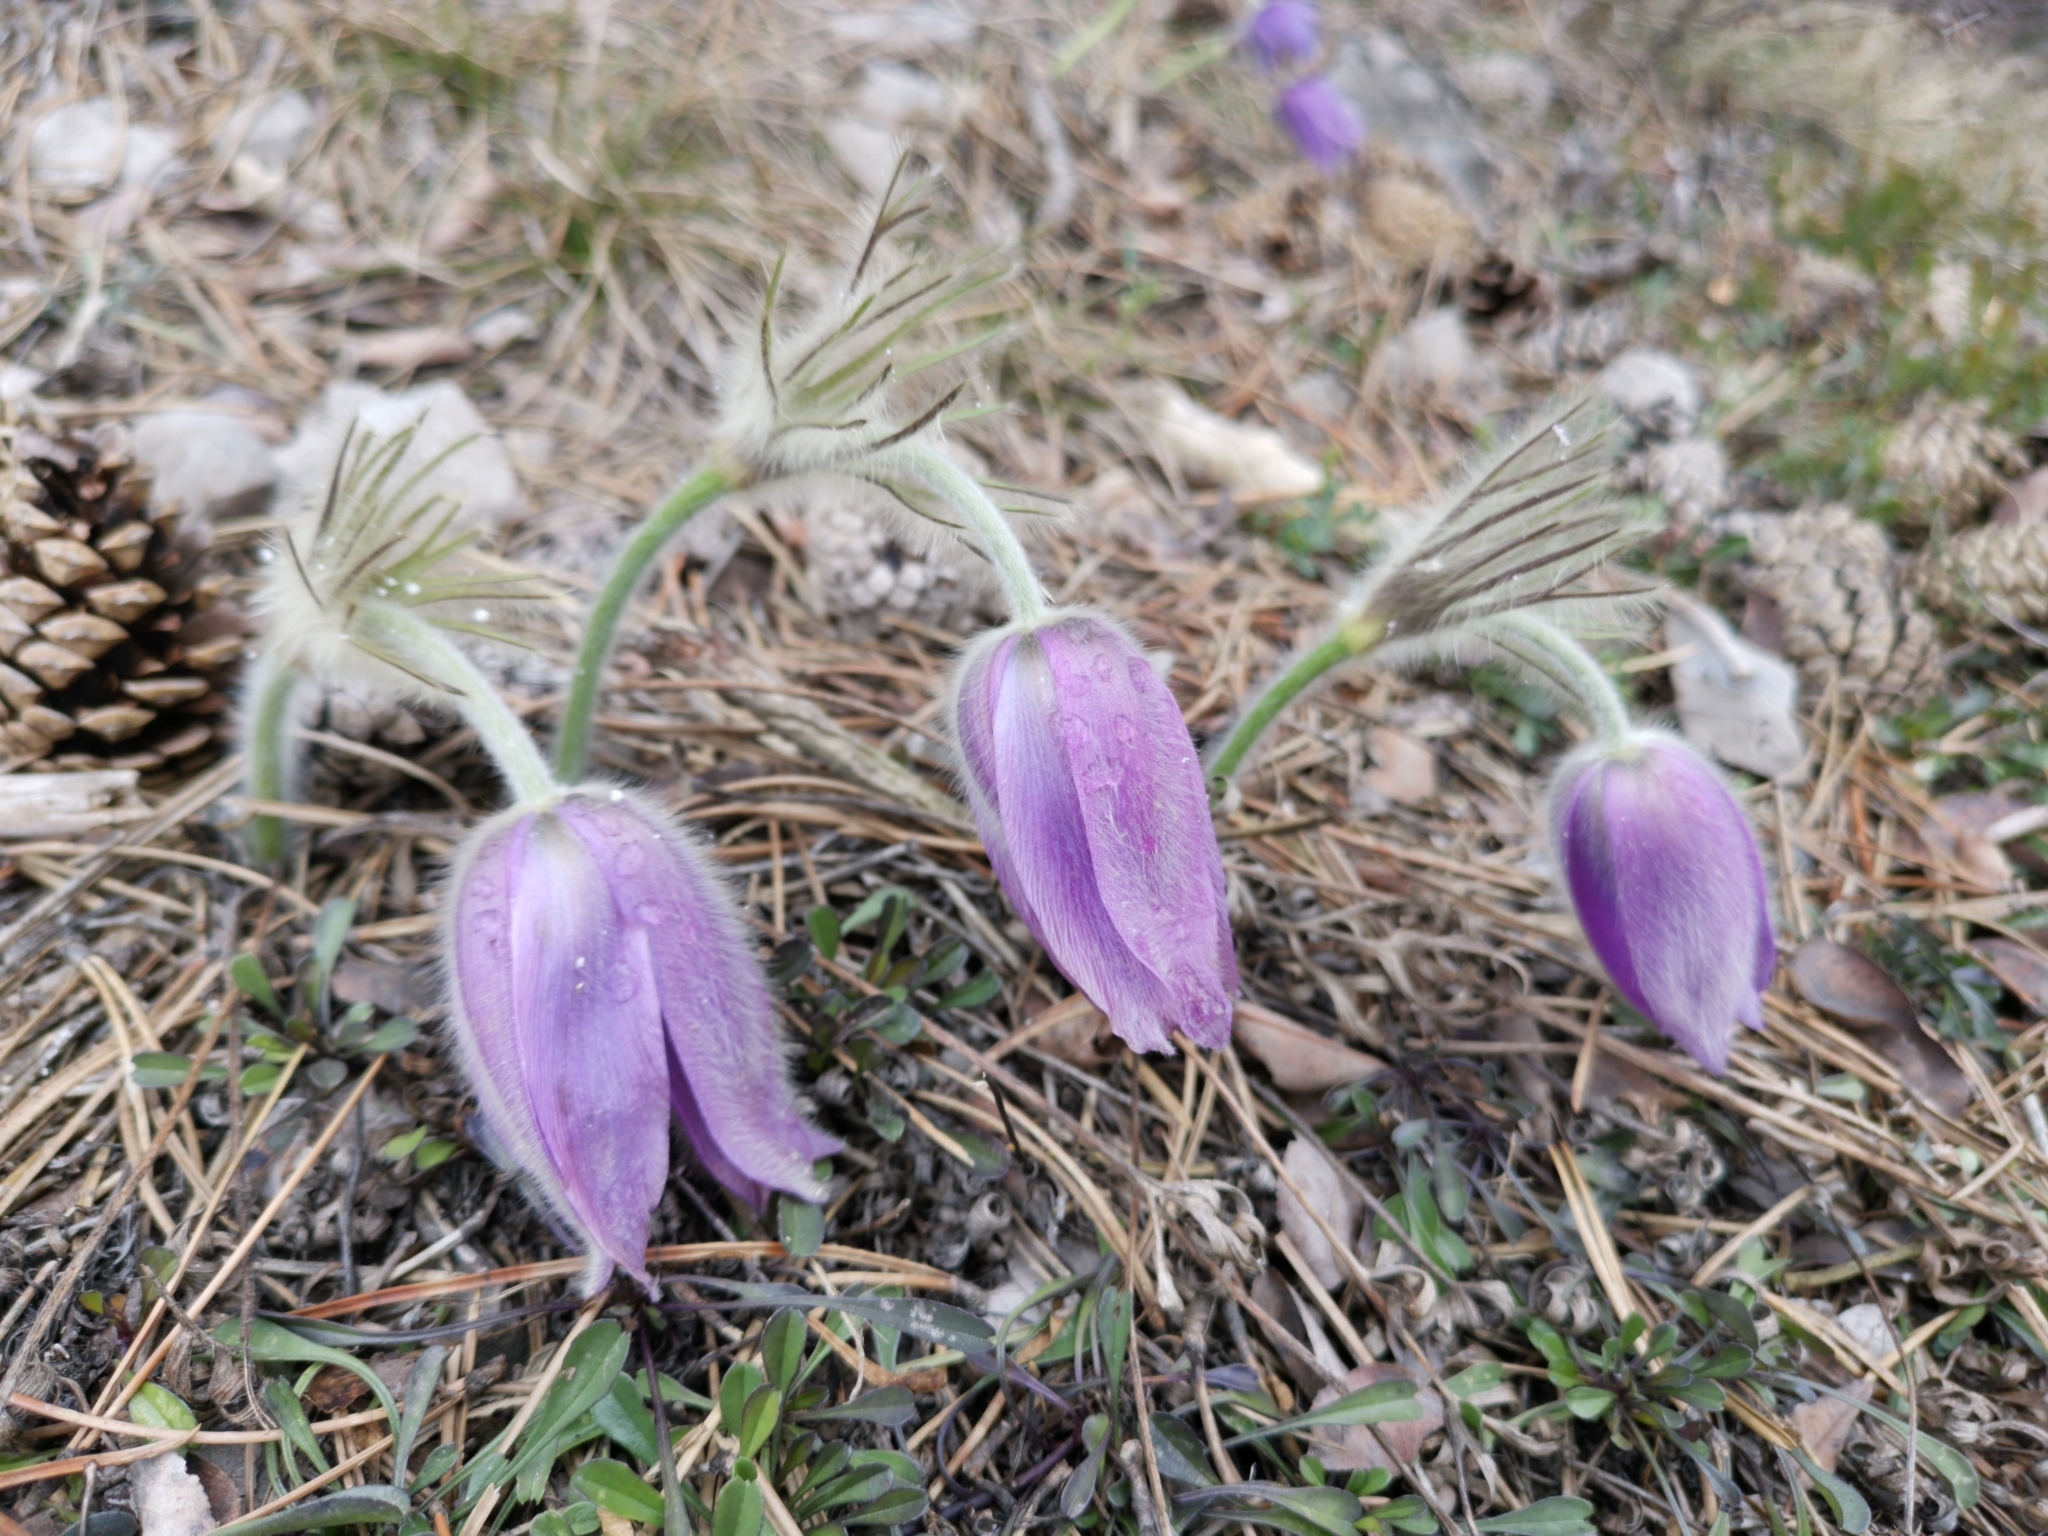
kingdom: Plantae
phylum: Tracheophyta
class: Magnoliopsida
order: Ranunculales
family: Ranunculaceae
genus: Pulsatilla
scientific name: Pulsatilla grandis
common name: Greater pasque flower
